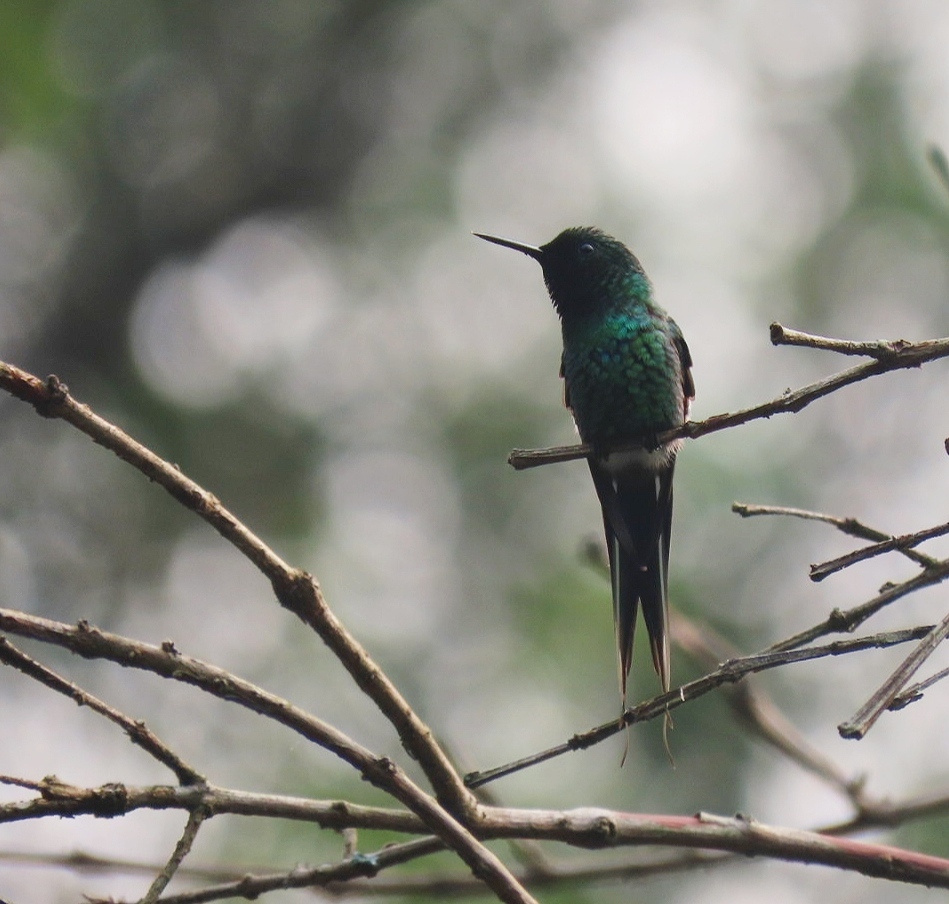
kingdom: Animalia
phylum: Chordata
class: Aves
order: Apodiformes
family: Trochilidae
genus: Discosura
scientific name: Discosura conversii
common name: Green thorntail
